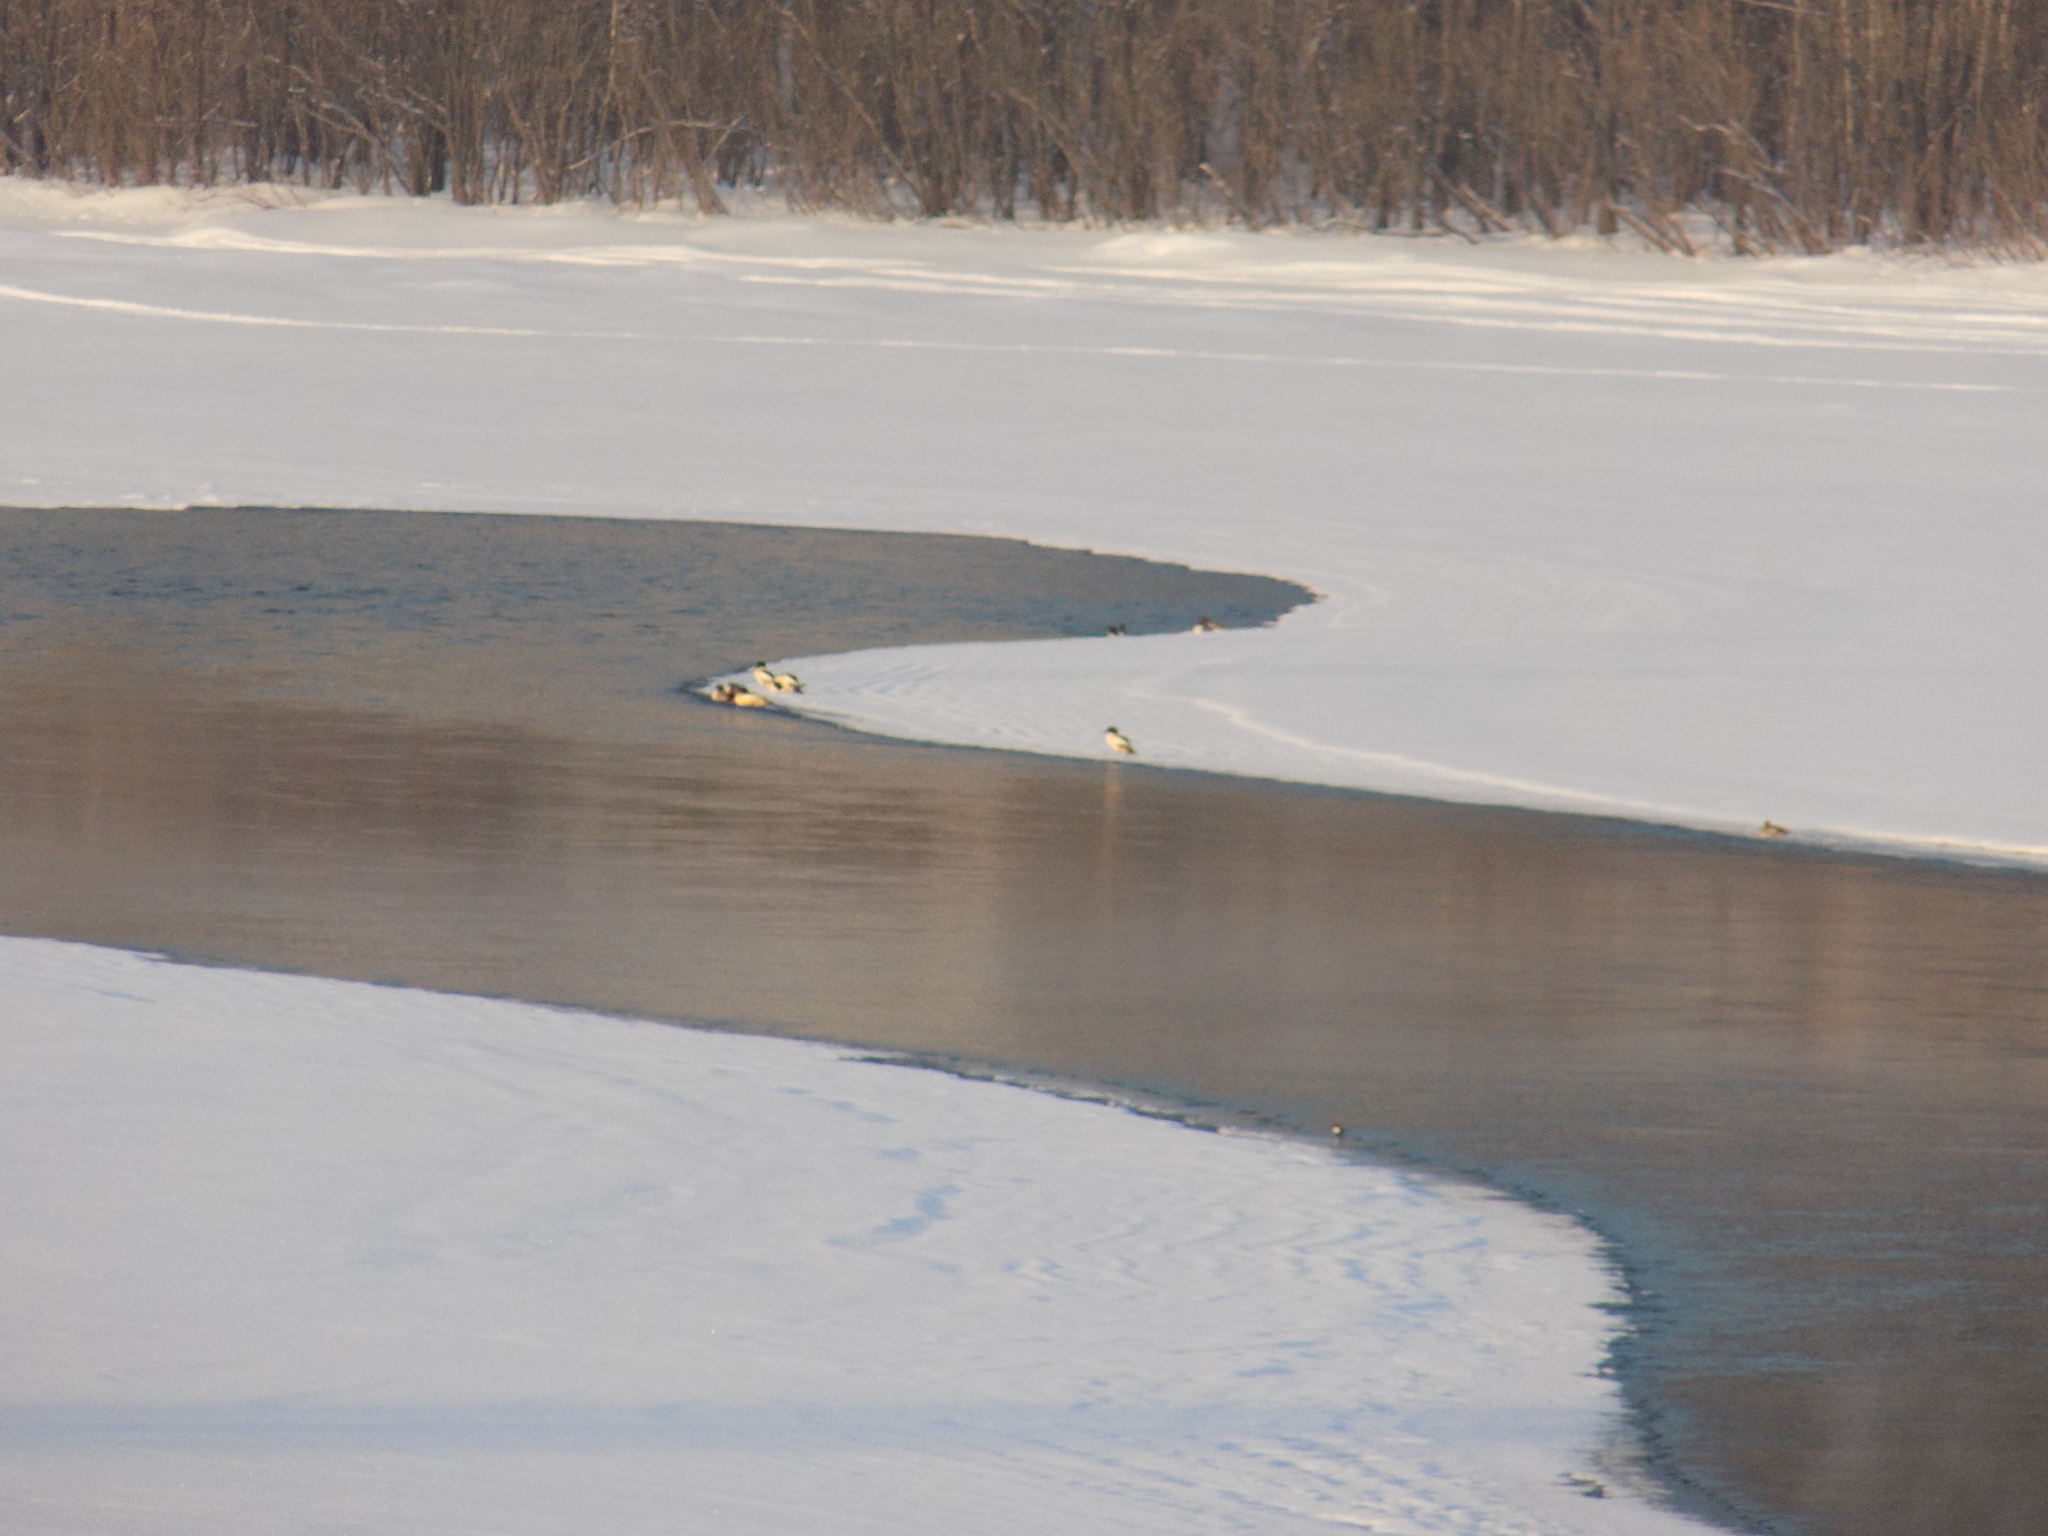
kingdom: Animalia
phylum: Chordata
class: Aves
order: Anseriformes
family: Anatidae
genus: Mergus
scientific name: Mergus merganser
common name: Common merganser
